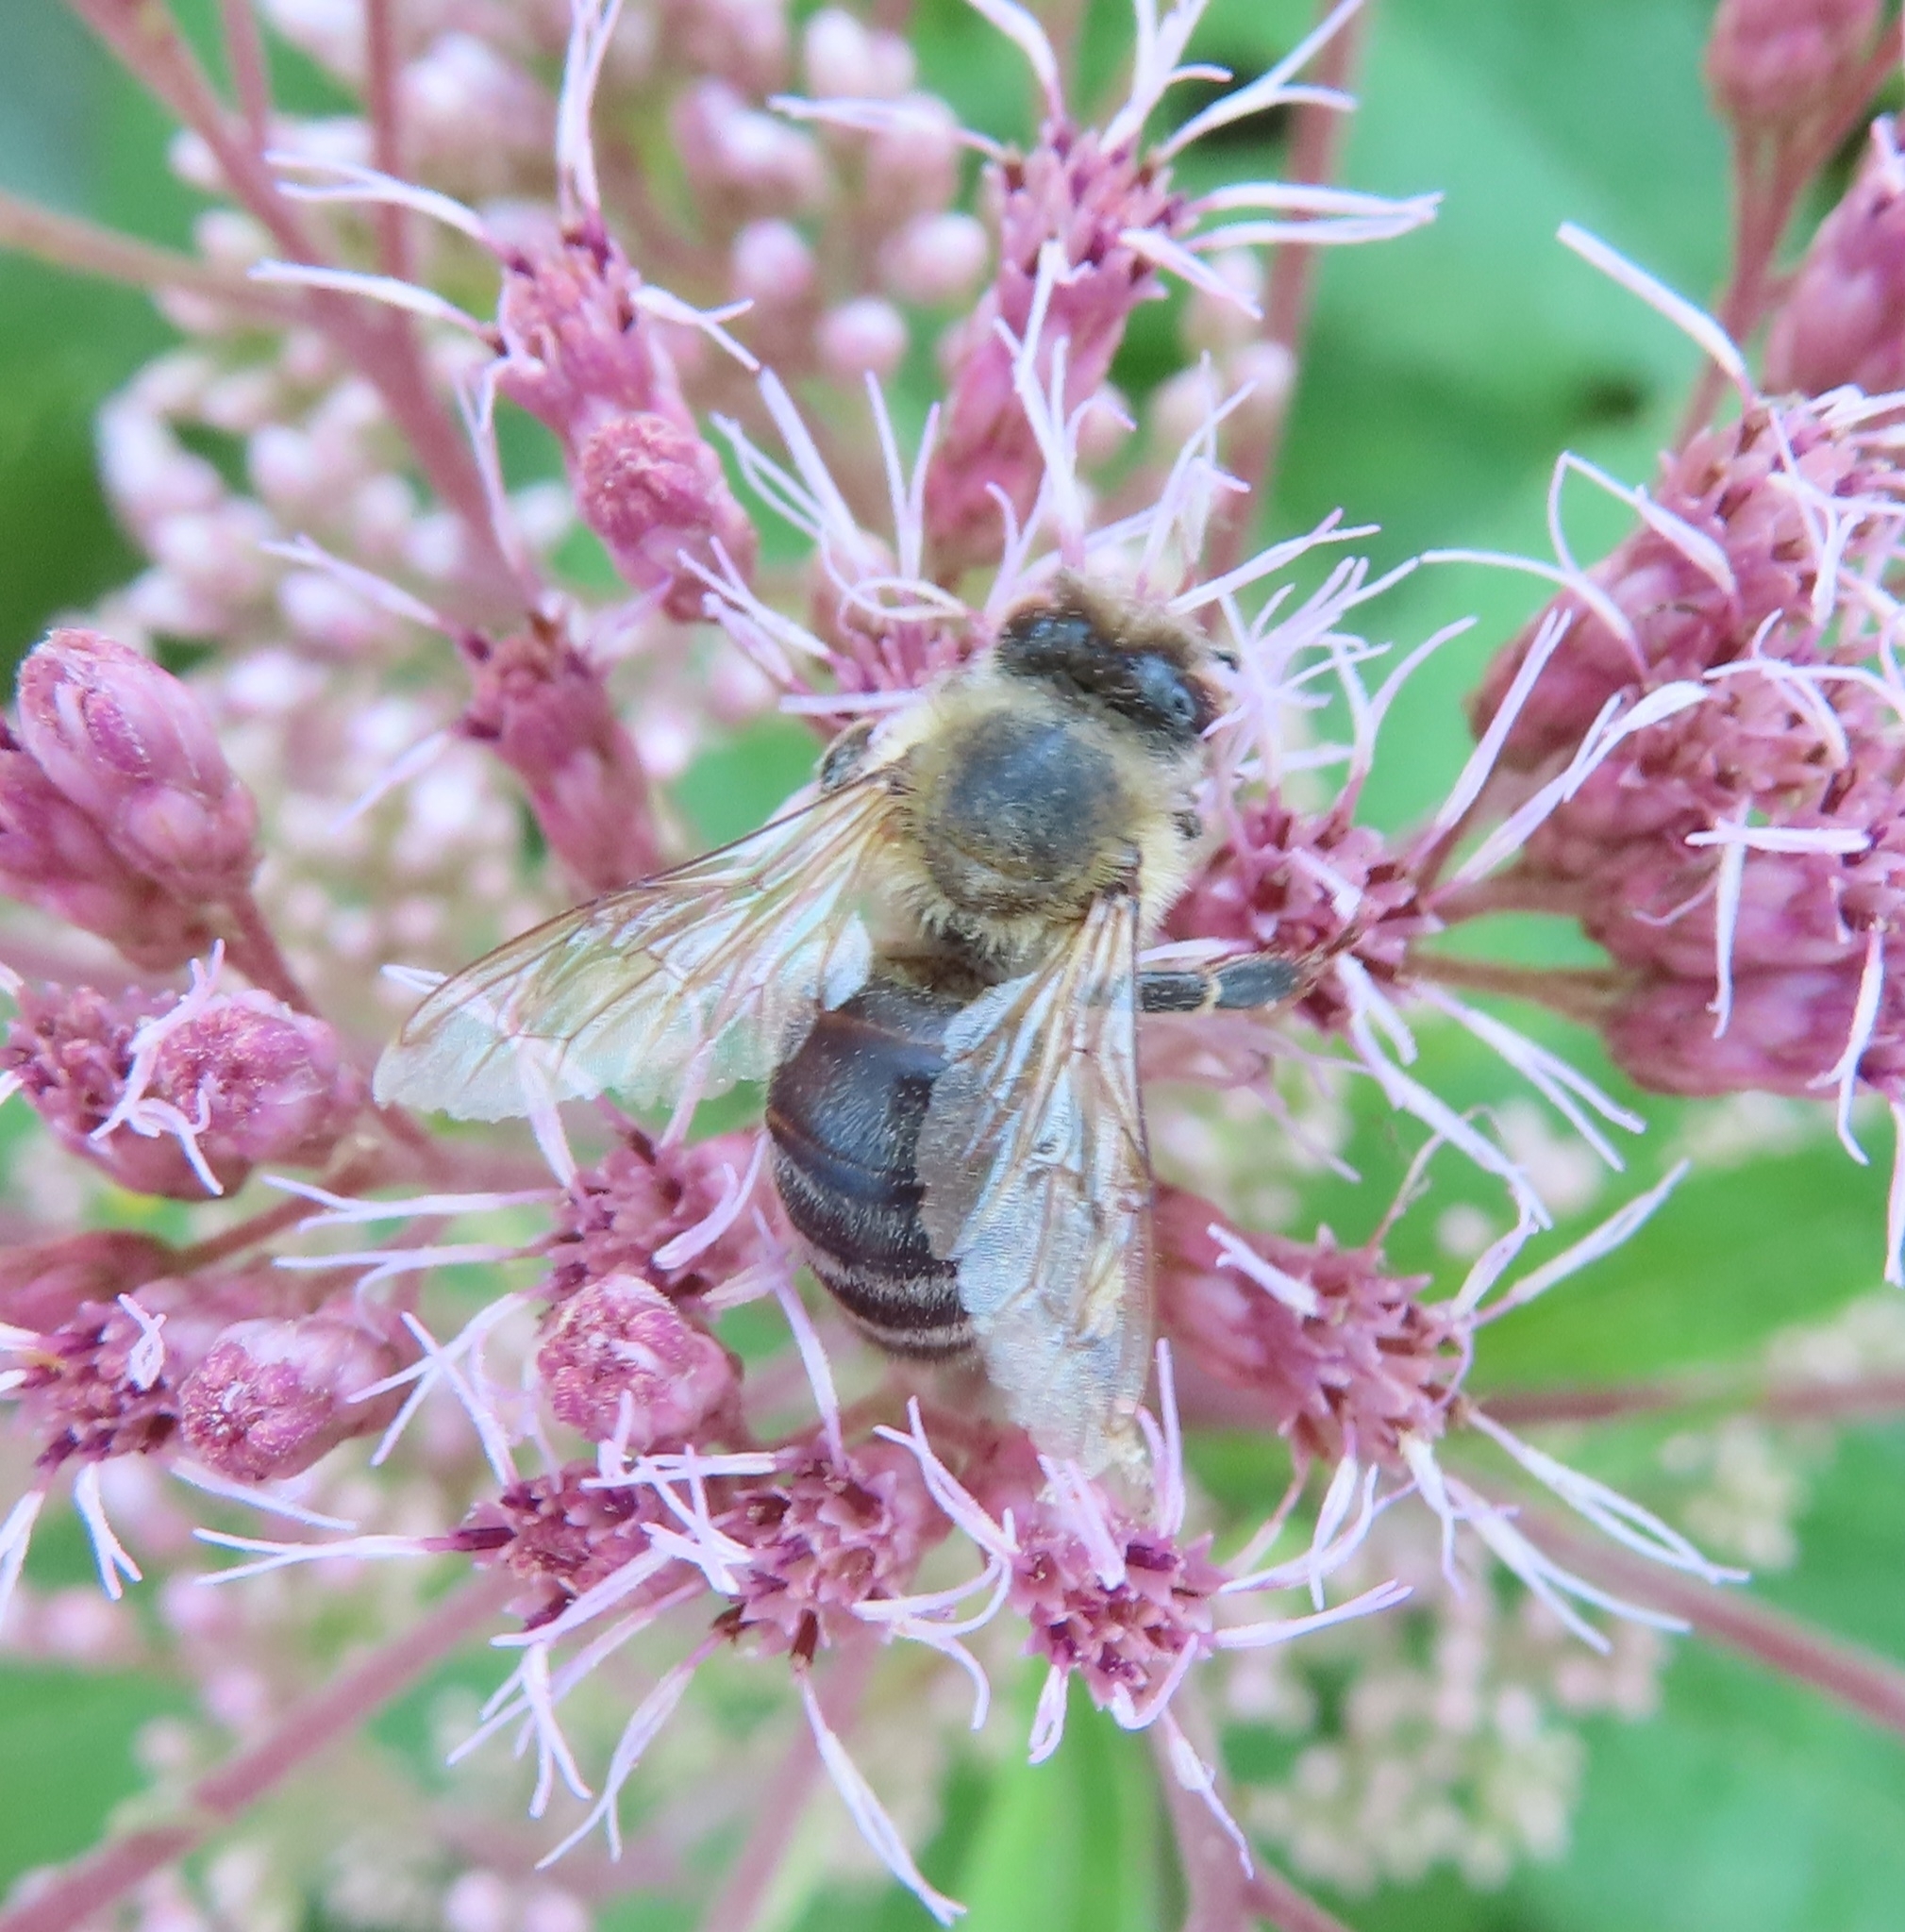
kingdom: Animalia
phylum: Arthropoda
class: Insecta
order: Hymenoptera
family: Apidae
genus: Apis
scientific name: Apis mellifera
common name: Honey bee
